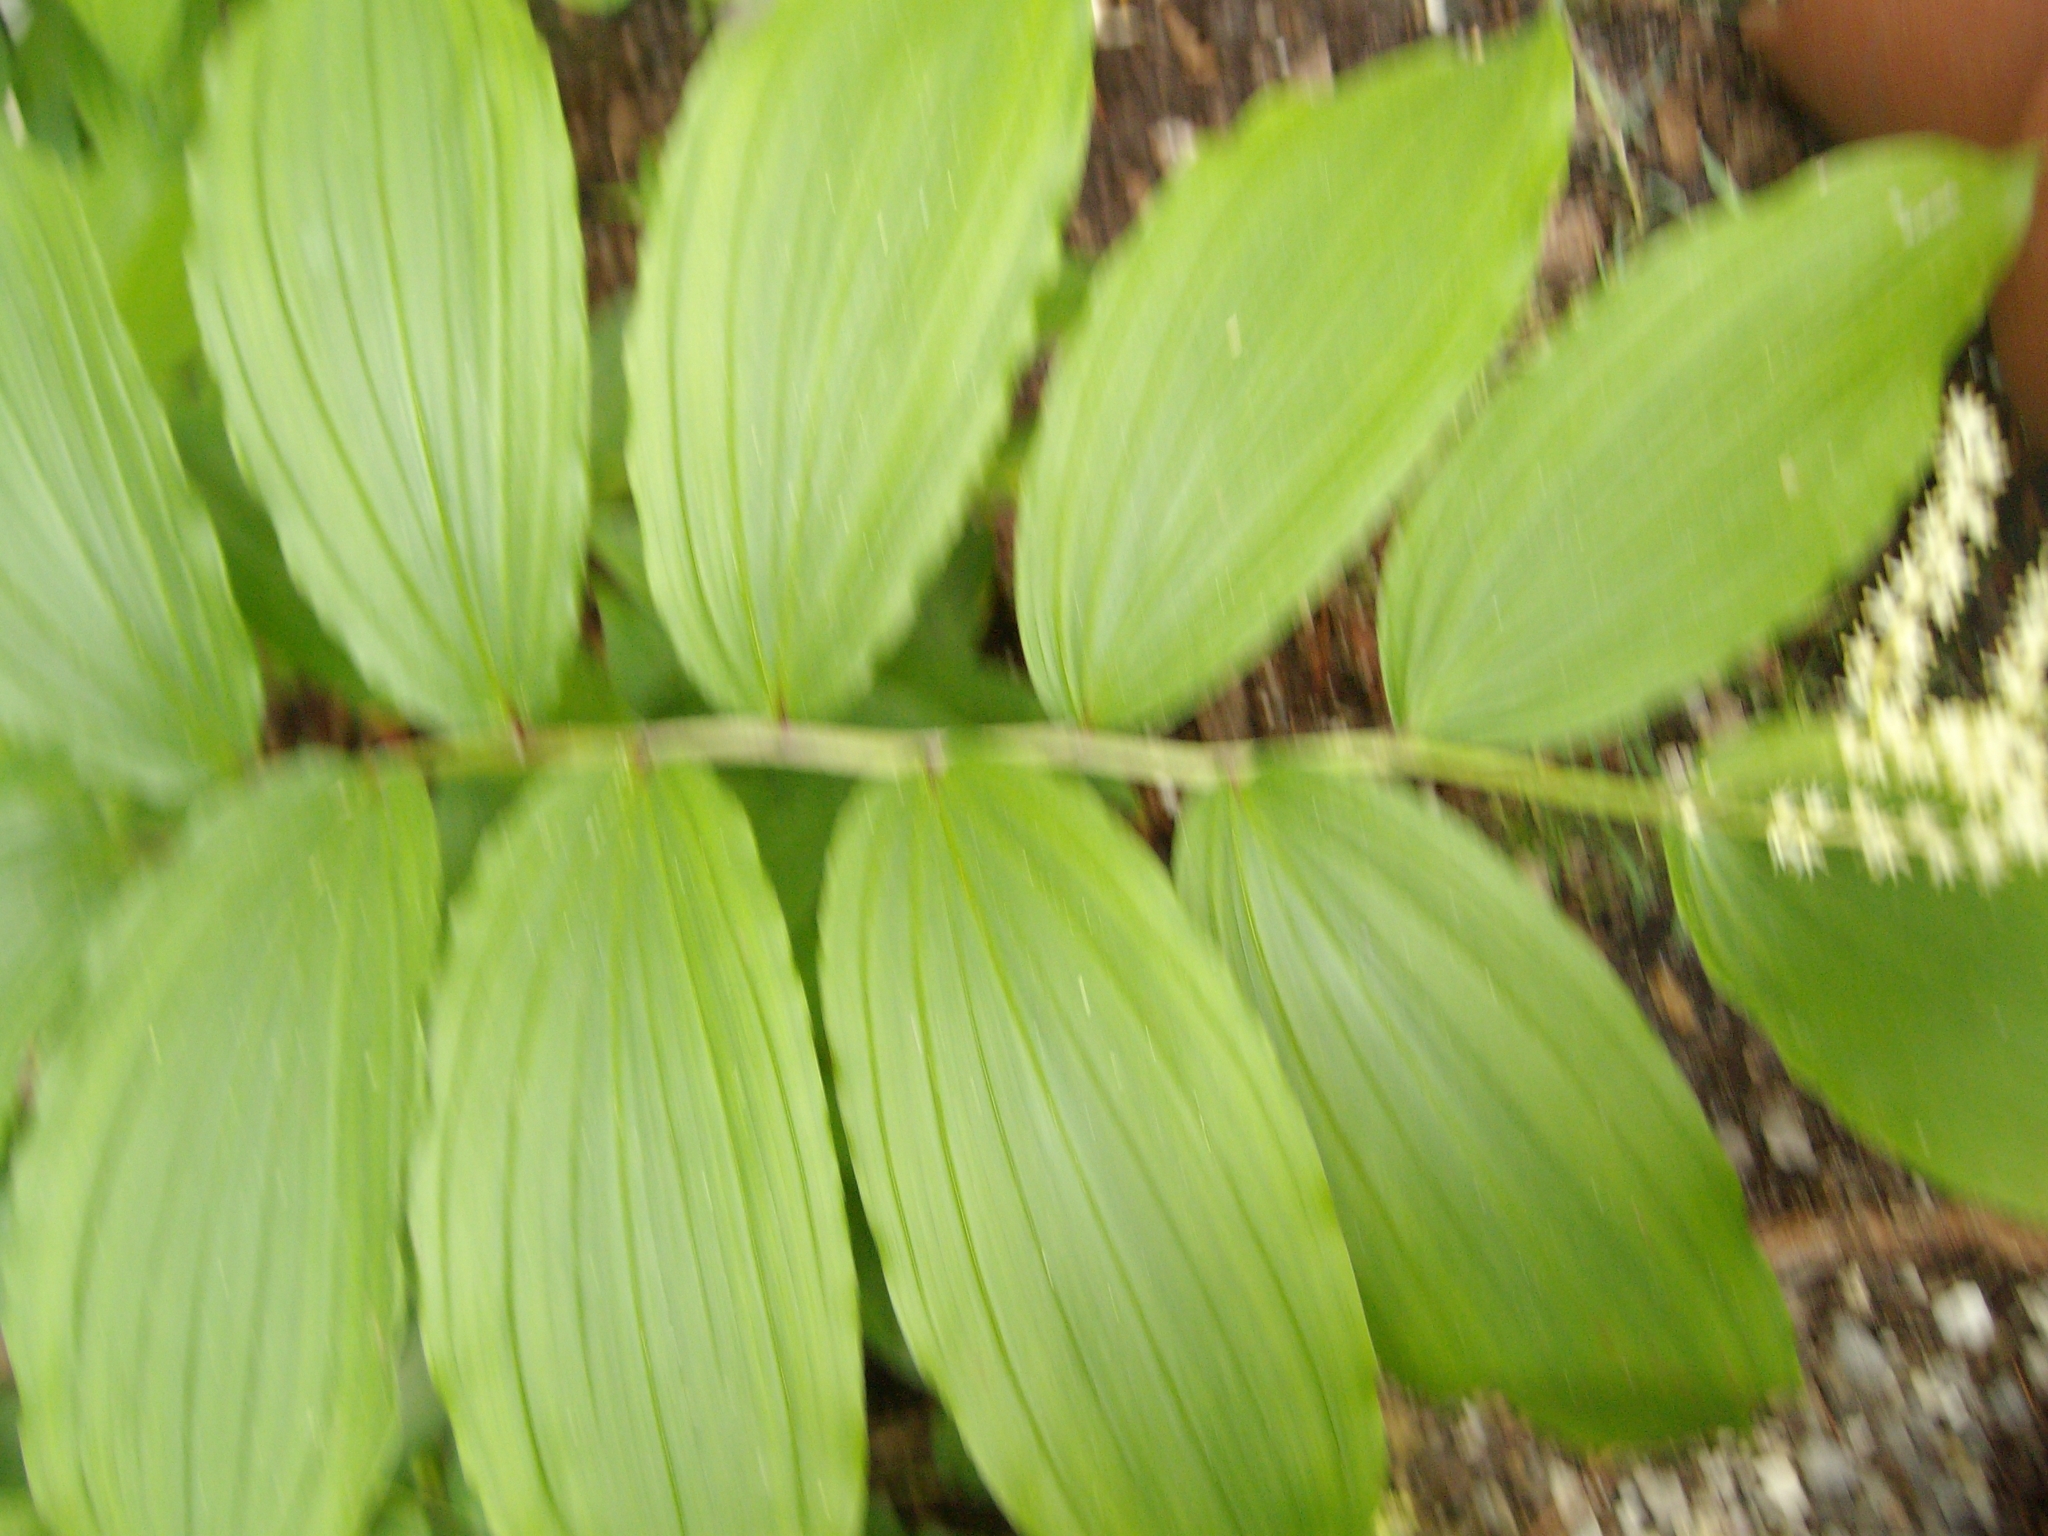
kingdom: Plantae
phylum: Tracheophyta
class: Liliopsida
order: Asparagales
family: Asparagaceae
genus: Maianthemum
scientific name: Maianthemum racemosum
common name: False spikenard
